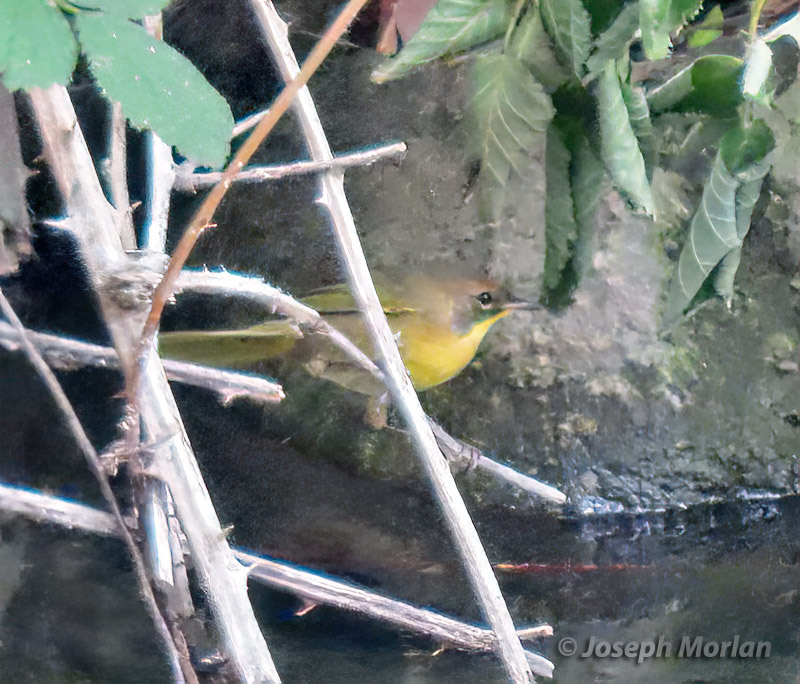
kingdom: Animalia
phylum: Chordata
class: Aves
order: Passeriformes
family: Parulidae
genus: Geothlypis
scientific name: Geothlypis trichas
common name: Common yellowthroat
